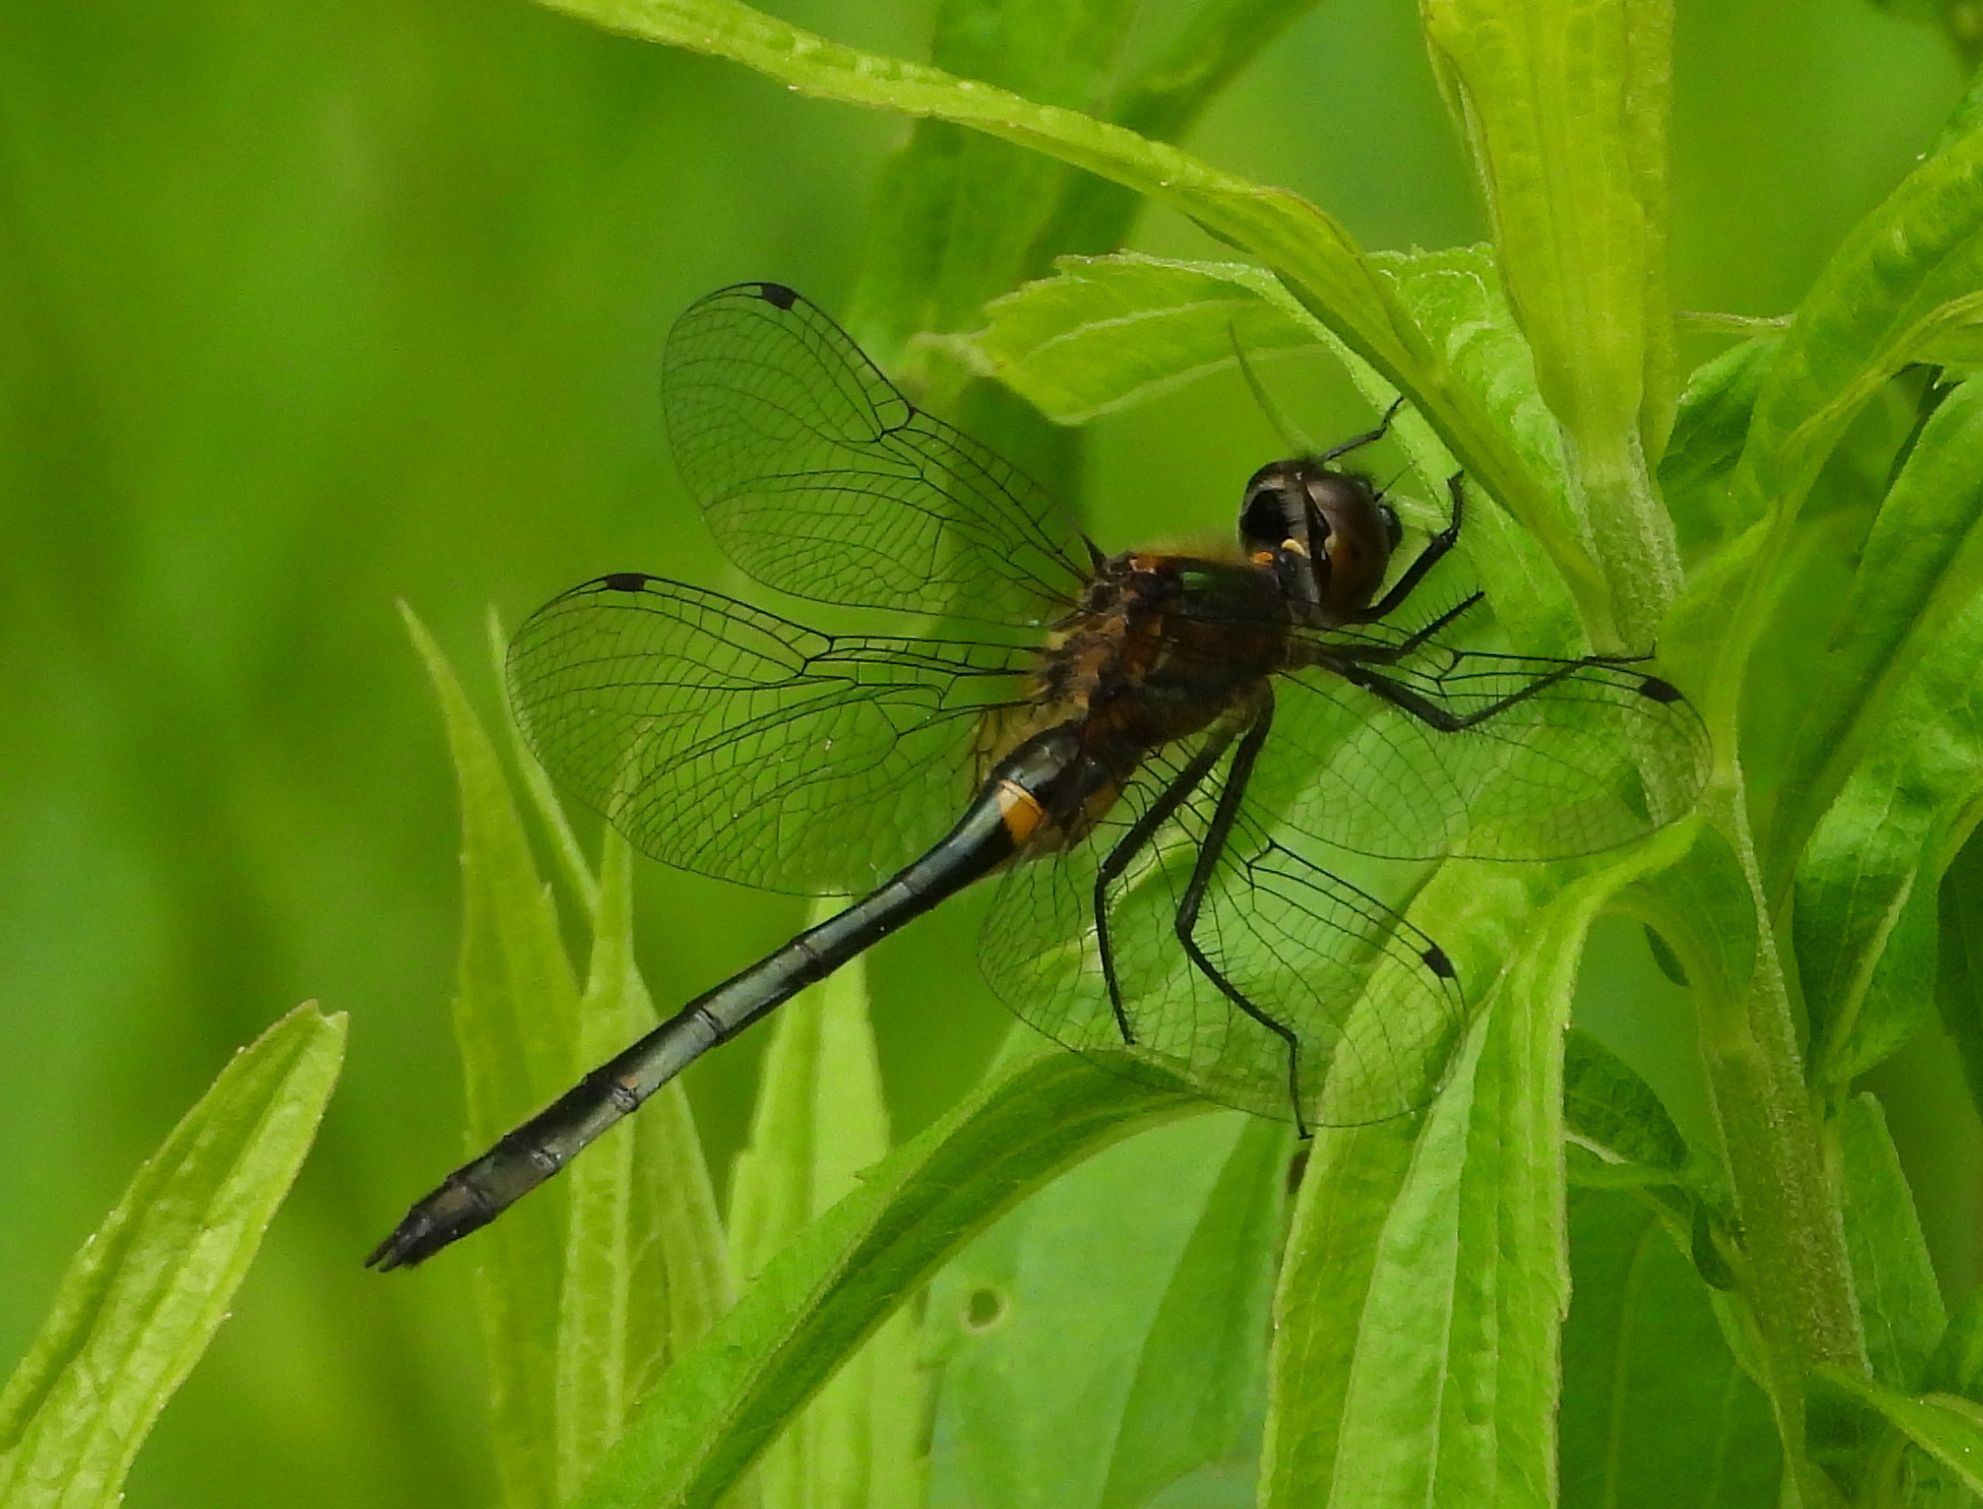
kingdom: Animalia
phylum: Arthropoda
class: Insecta
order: Odonata
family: Corduliidae
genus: Dorocordulia
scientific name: Dorocordulia libera
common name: Racket-tailed emerald
